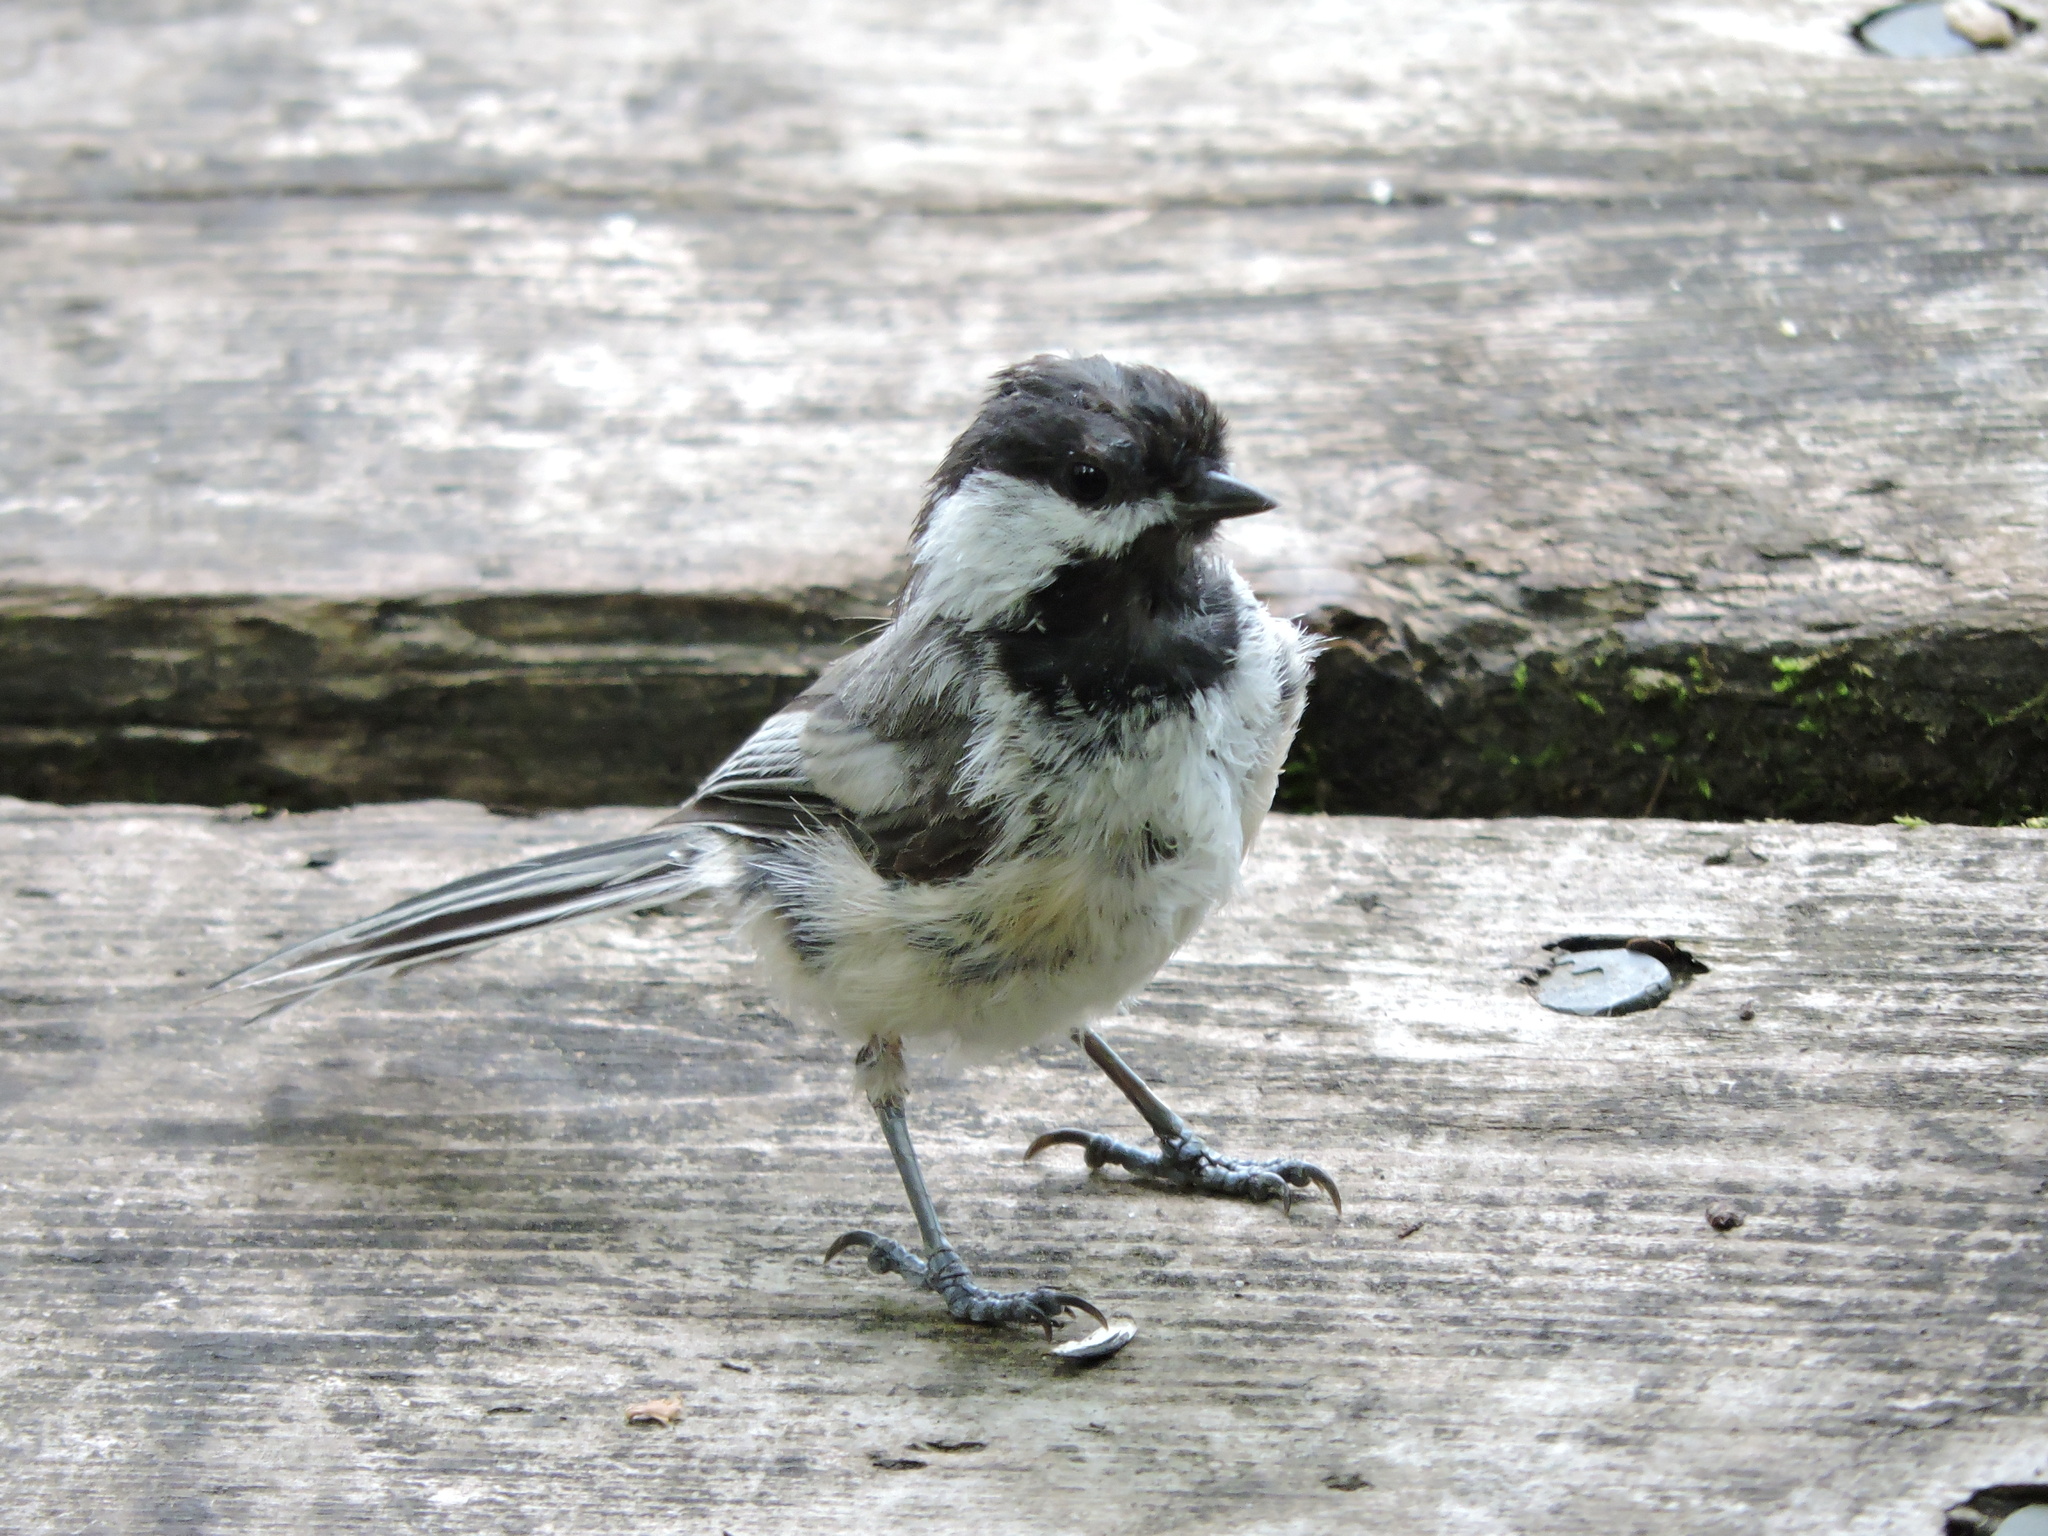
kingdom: Animalia
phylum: Chordata
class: Aves
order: Passeriformes
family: Paridae
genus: Poecile
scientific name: Poecile atricapillus
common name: Black-capped chickadee
